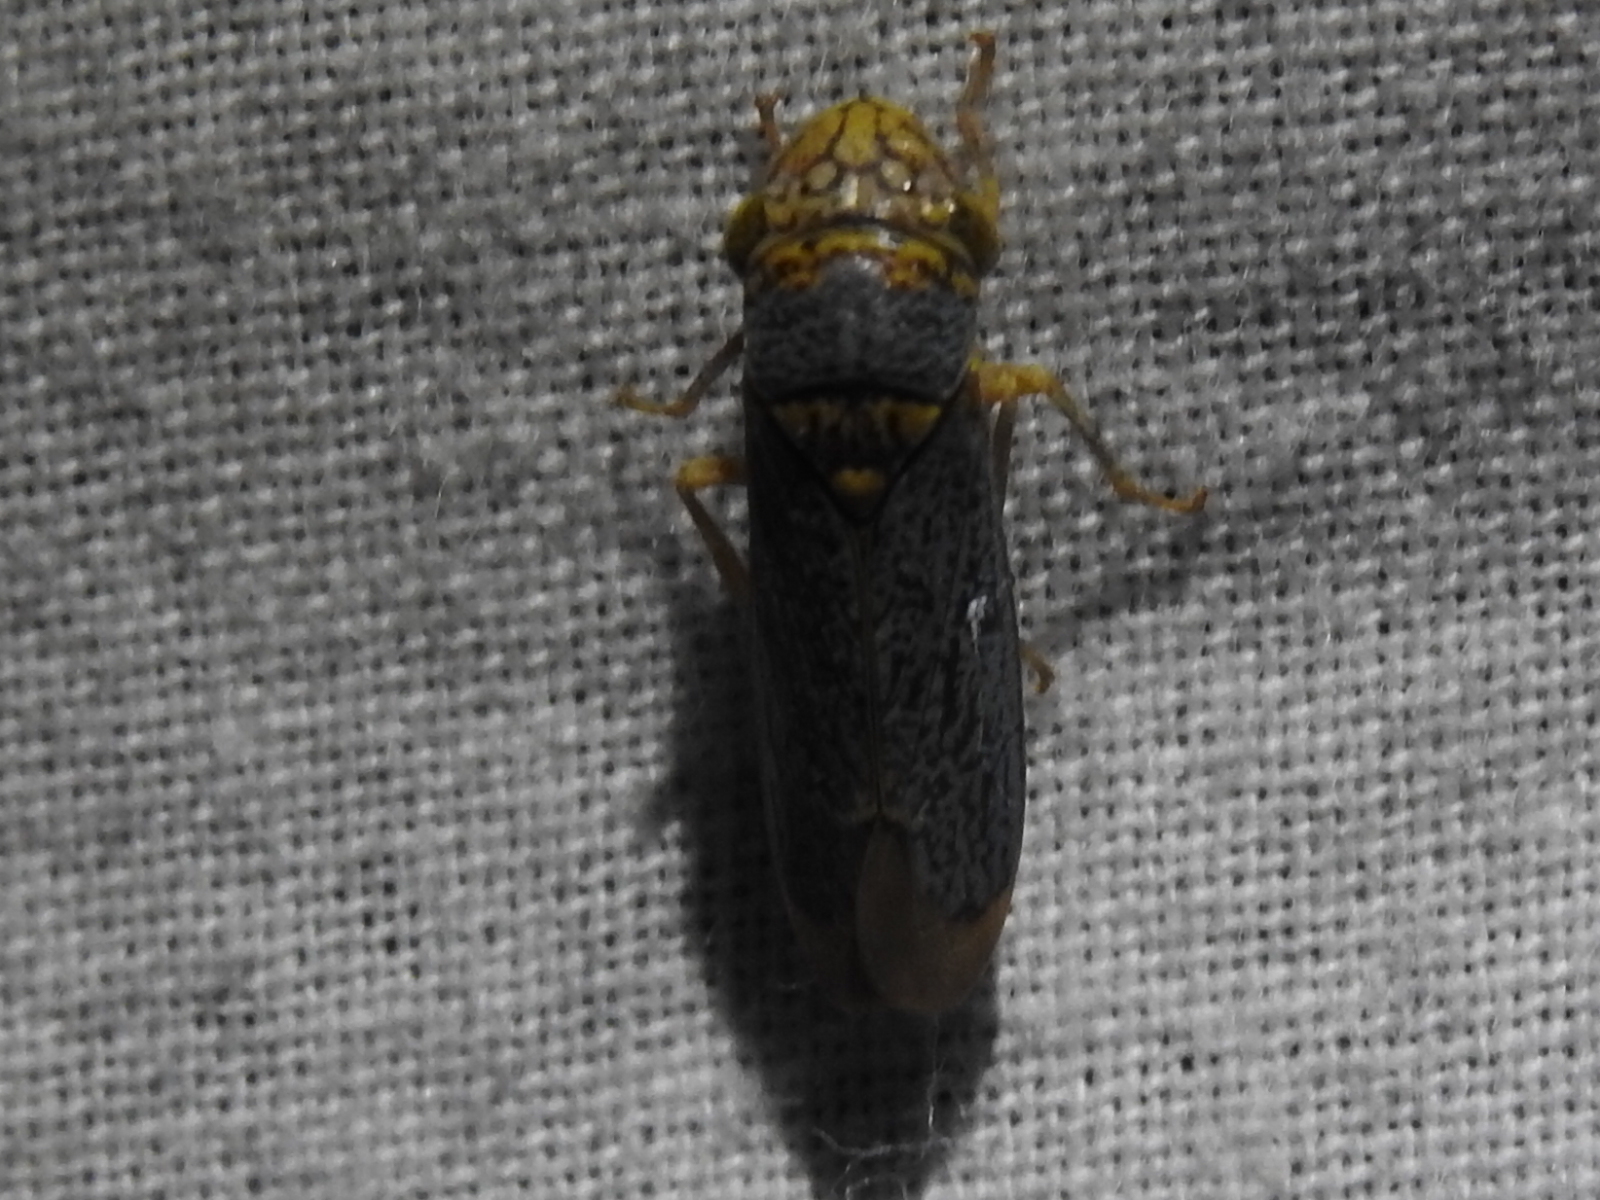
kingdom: Animalia
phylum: Arthropoda
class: Insecta
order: Hemiptera
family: Cicadellidae
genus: Oncometopia
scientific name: Oncometopia orbona
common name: Broad-headed sharpshooter
